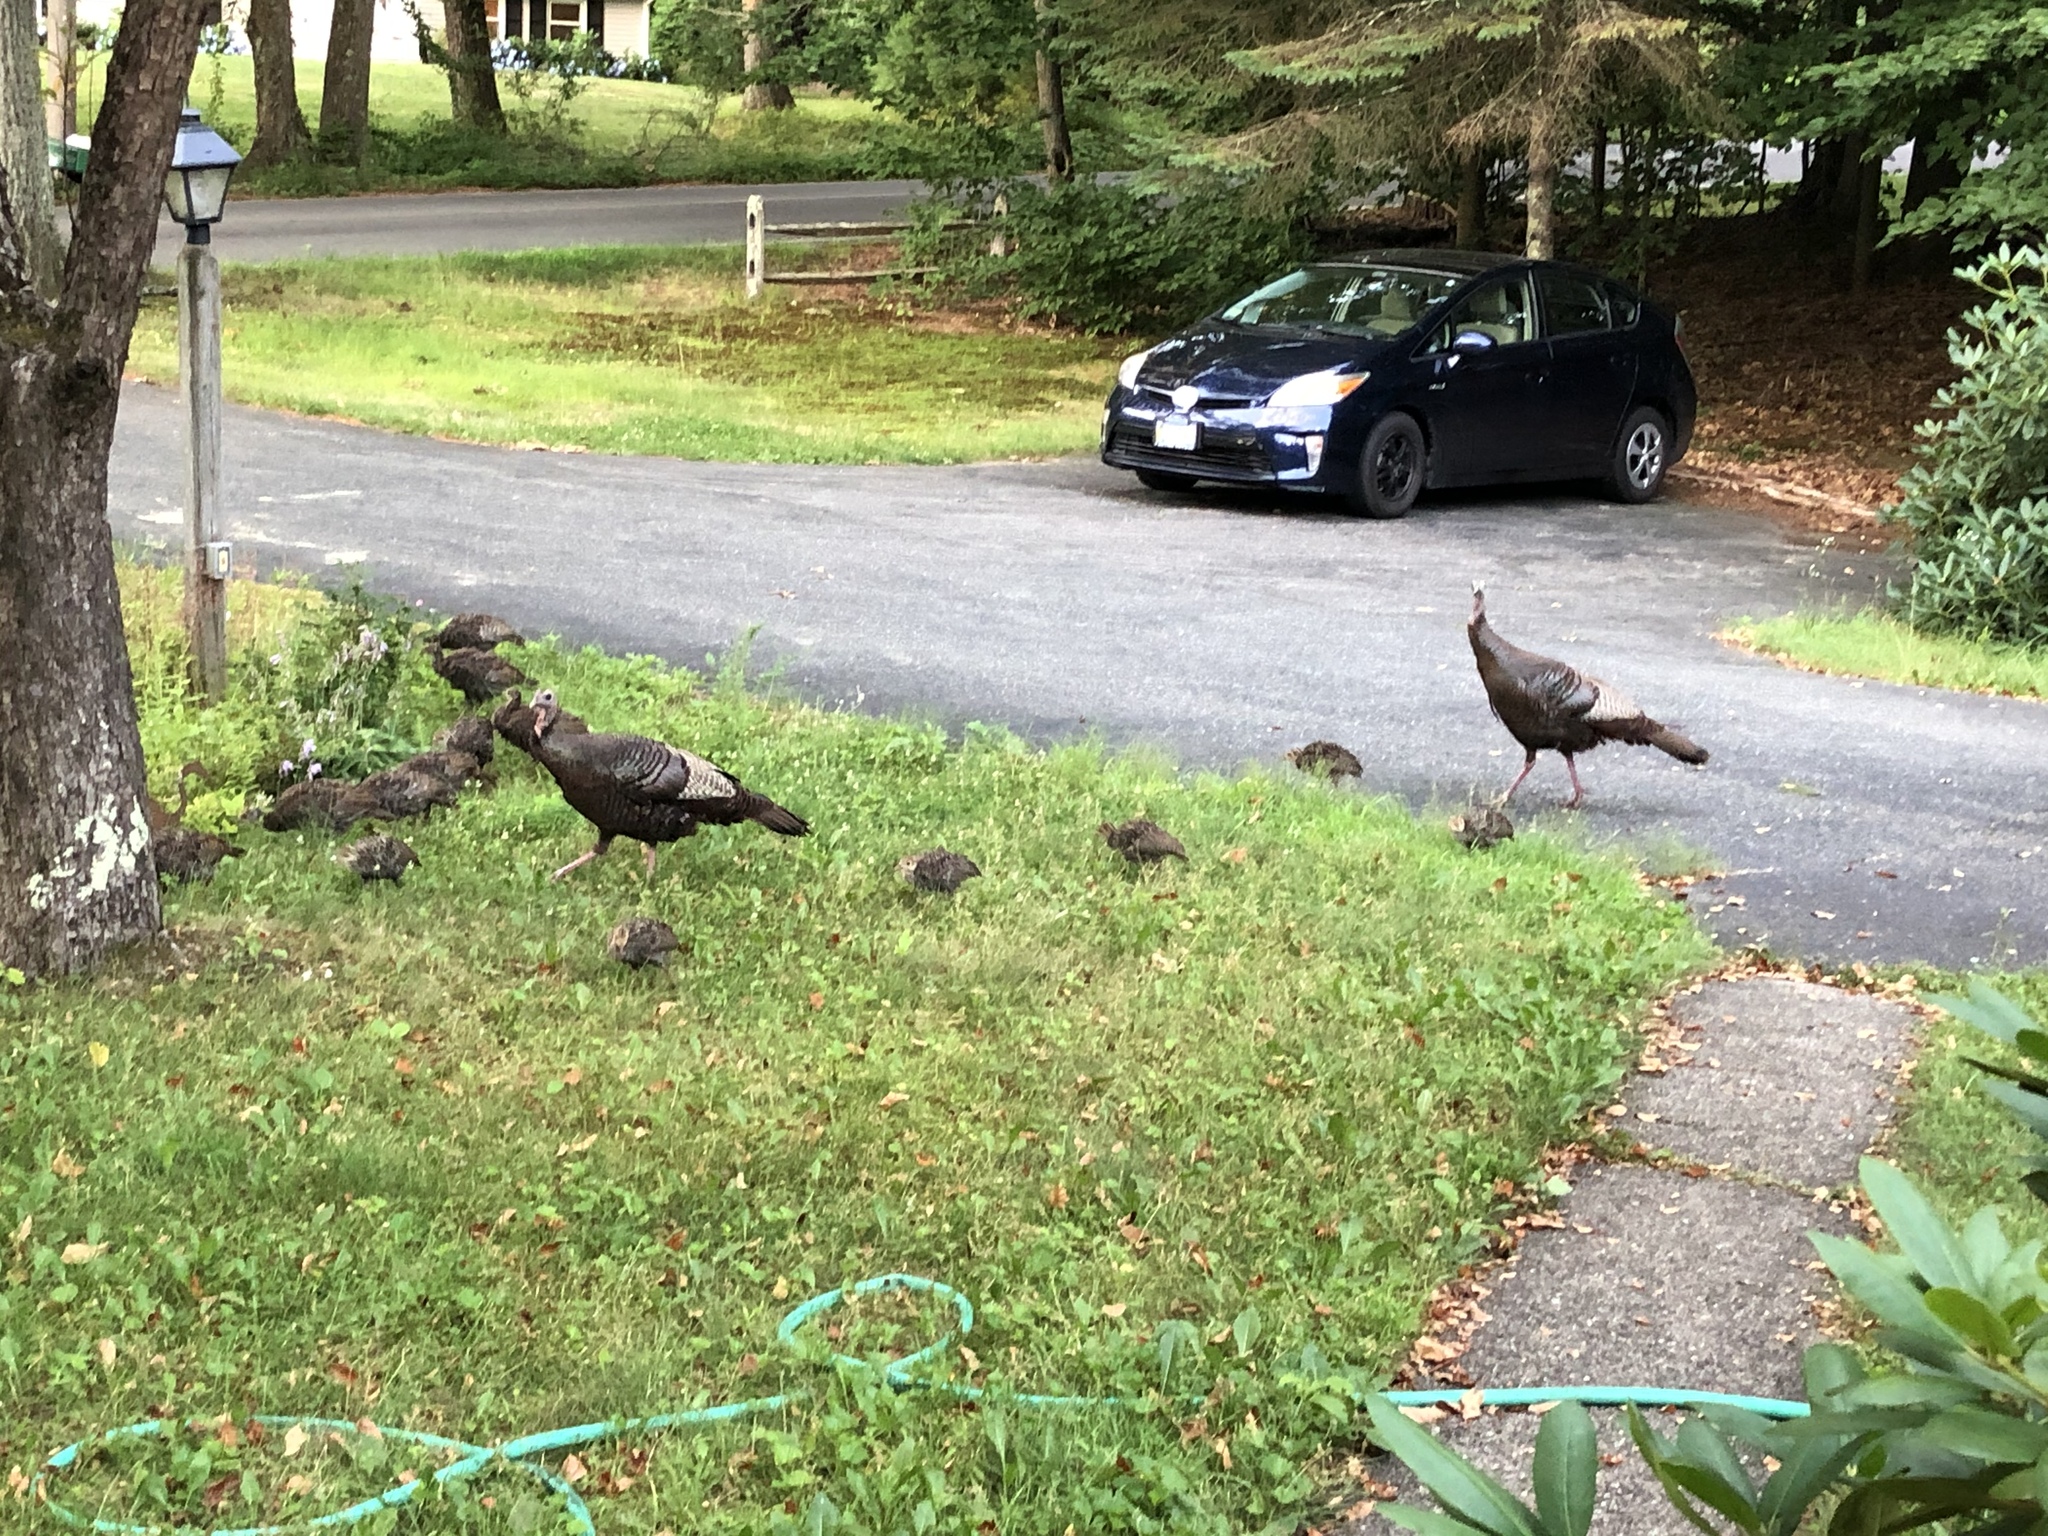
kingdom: Animalia
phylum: Chordata
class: Aves
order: Galliformes
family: Phasianidae
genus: Meleagris
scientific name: Meleagris gallopavo
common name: Wild turkey
